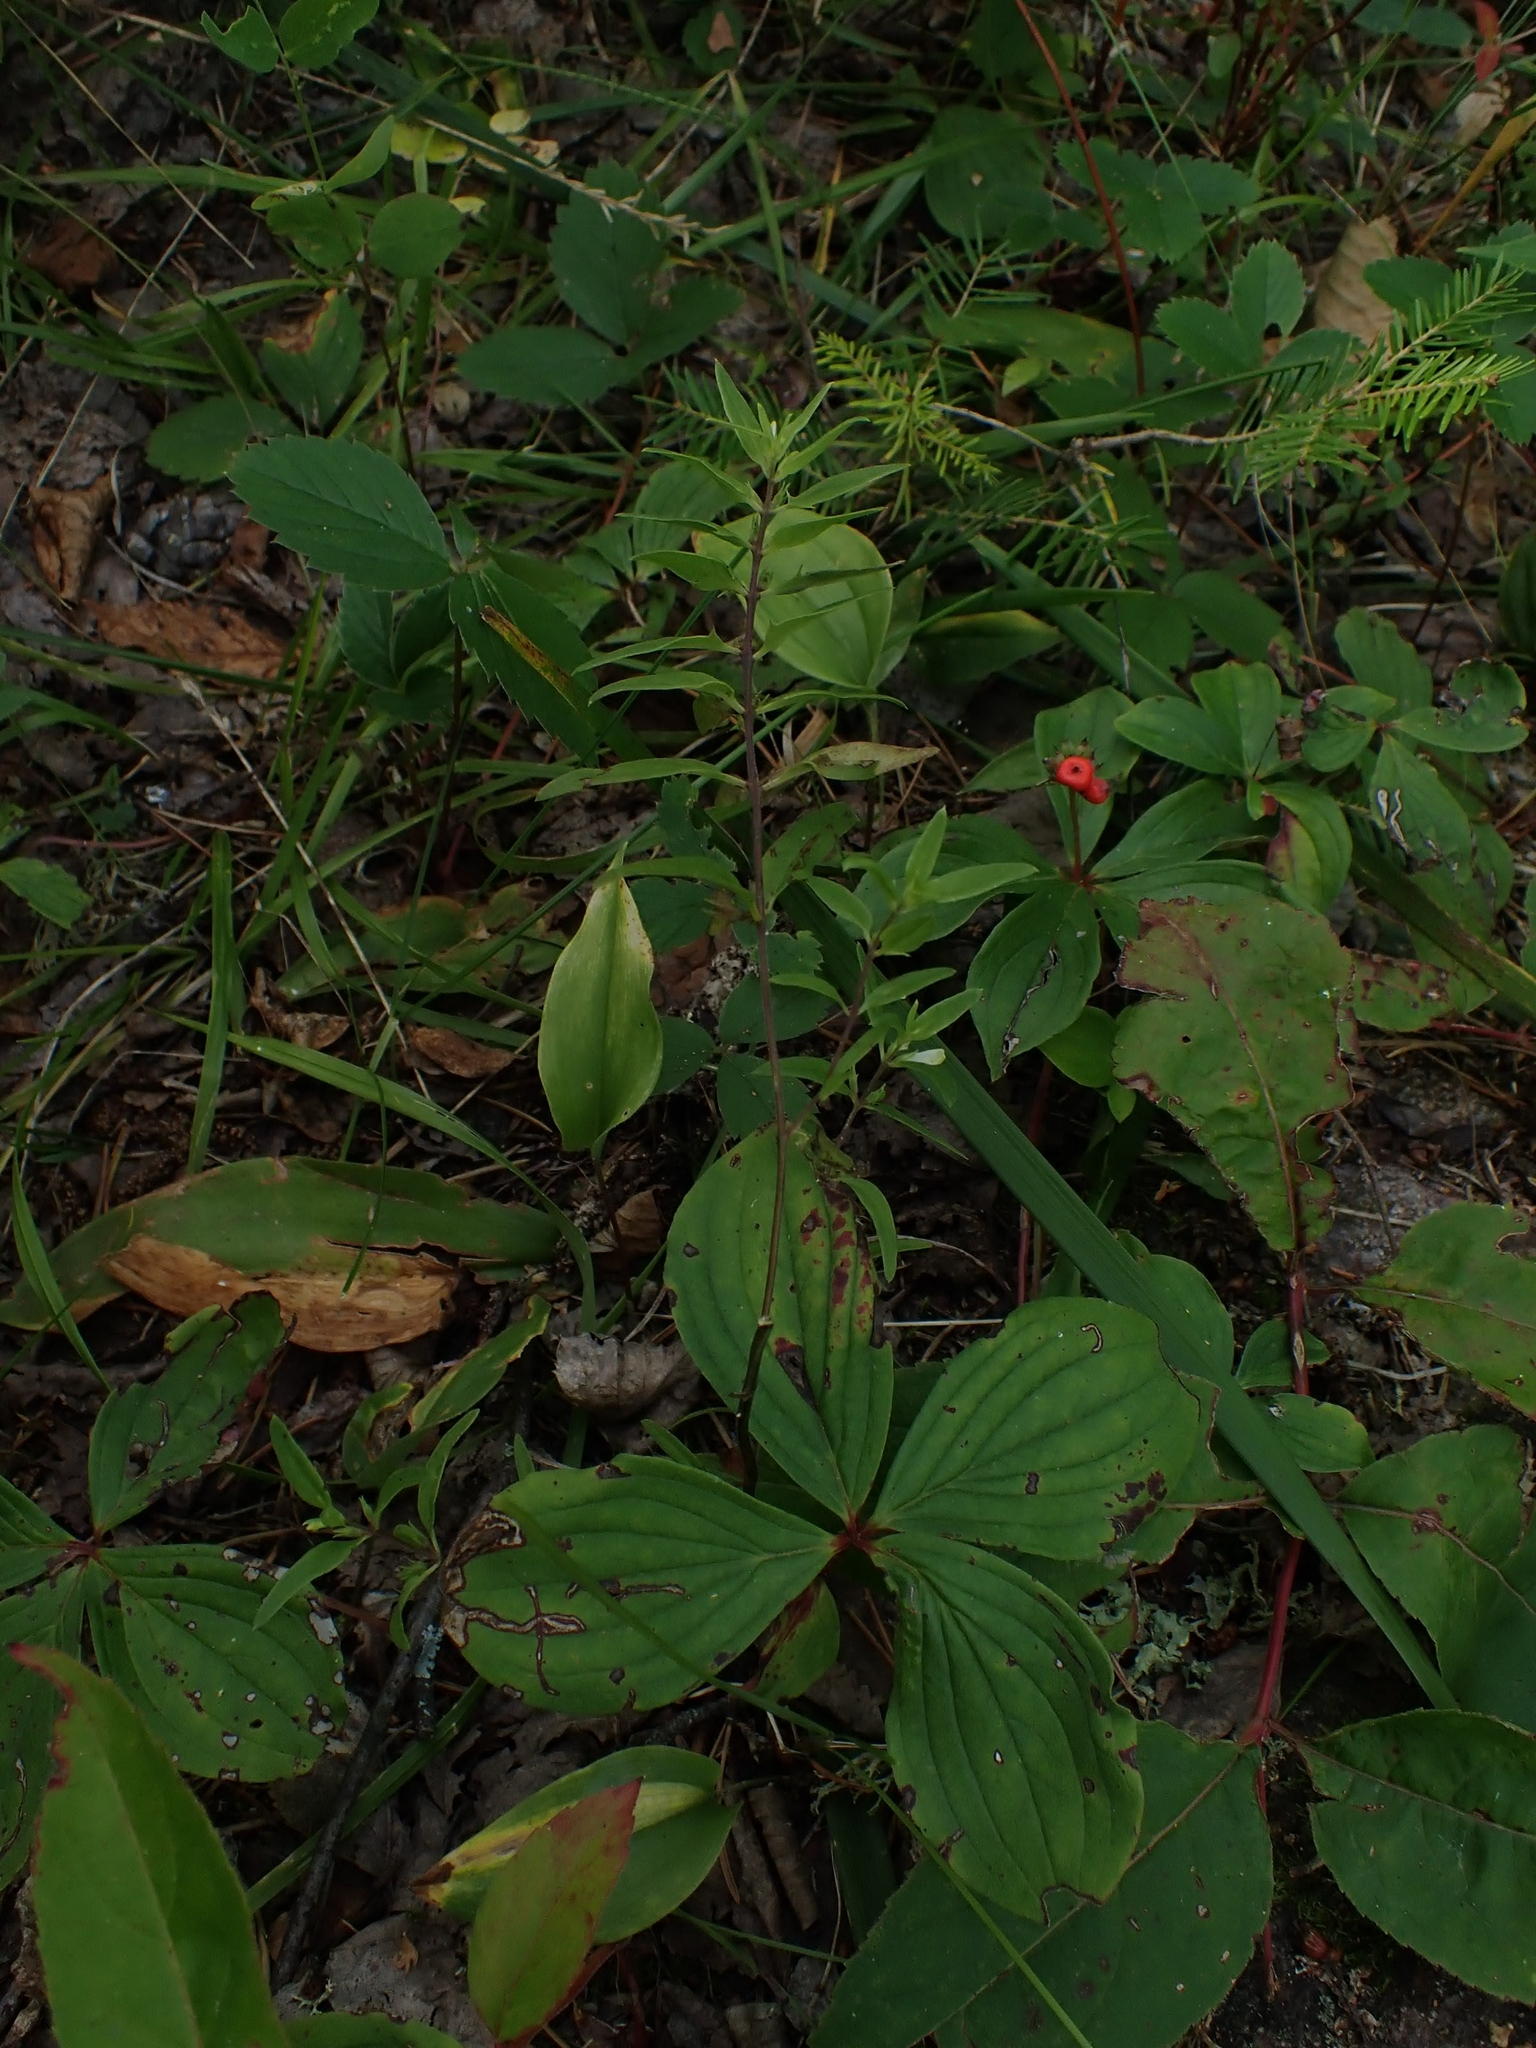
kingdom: Plantae
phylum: Tracheophyta
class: Magnoliopsida
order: Lamiales
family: Orobanchaceae
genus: Melampyrum
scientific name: Melampyrum lineare
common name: American cow-wheat
